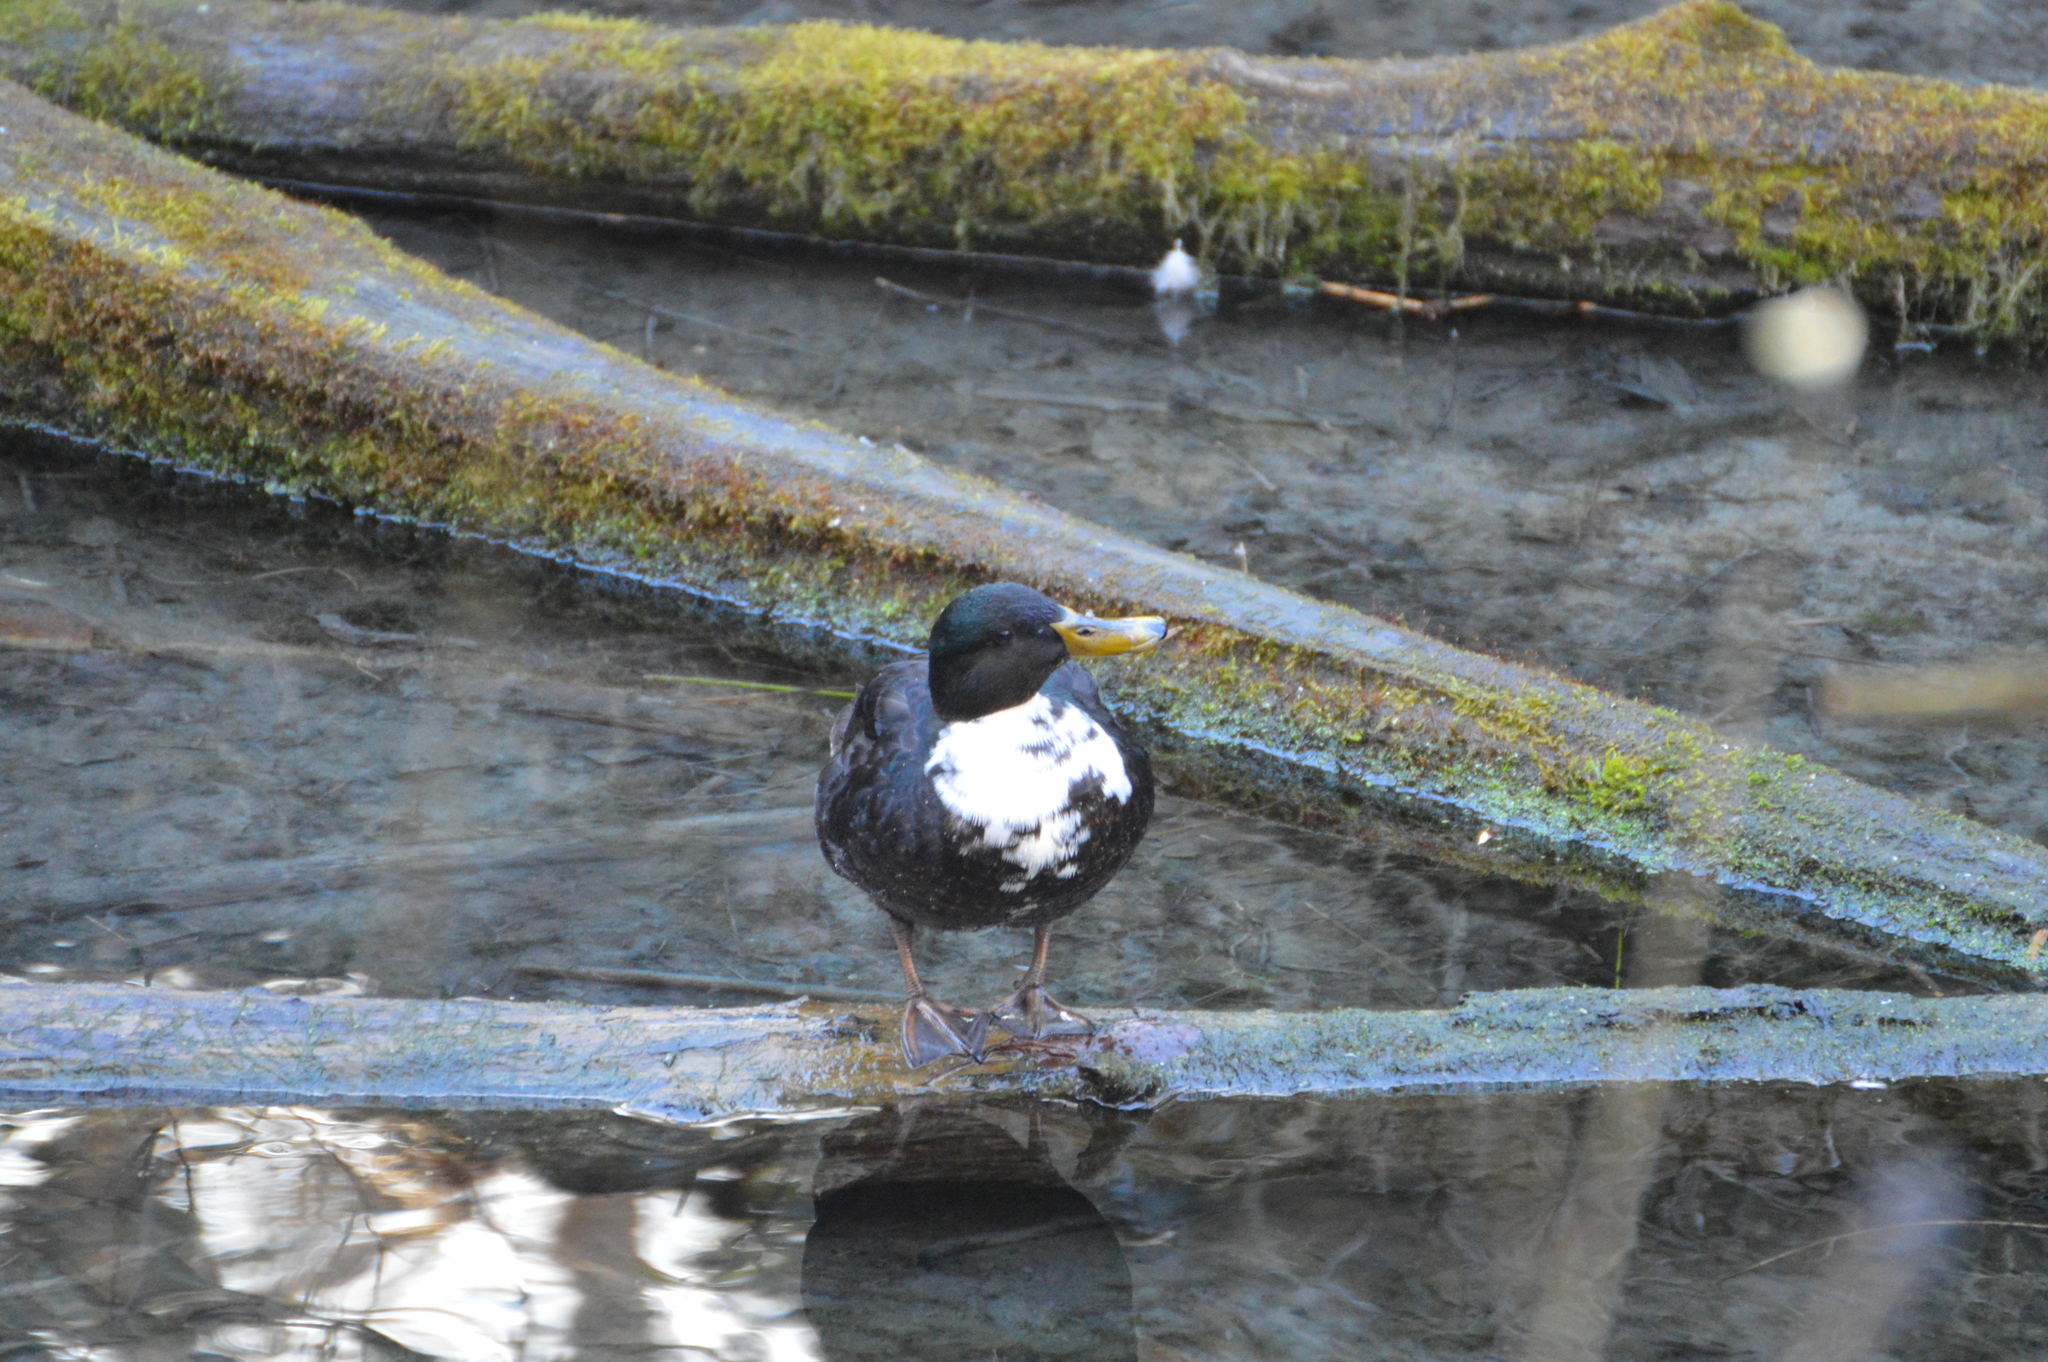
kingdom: Animalia
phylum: Chordata
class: Aves
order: Anseriformes
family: Anatidae
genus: Anas
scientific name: Anas platyrhynchos
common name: Mallard
